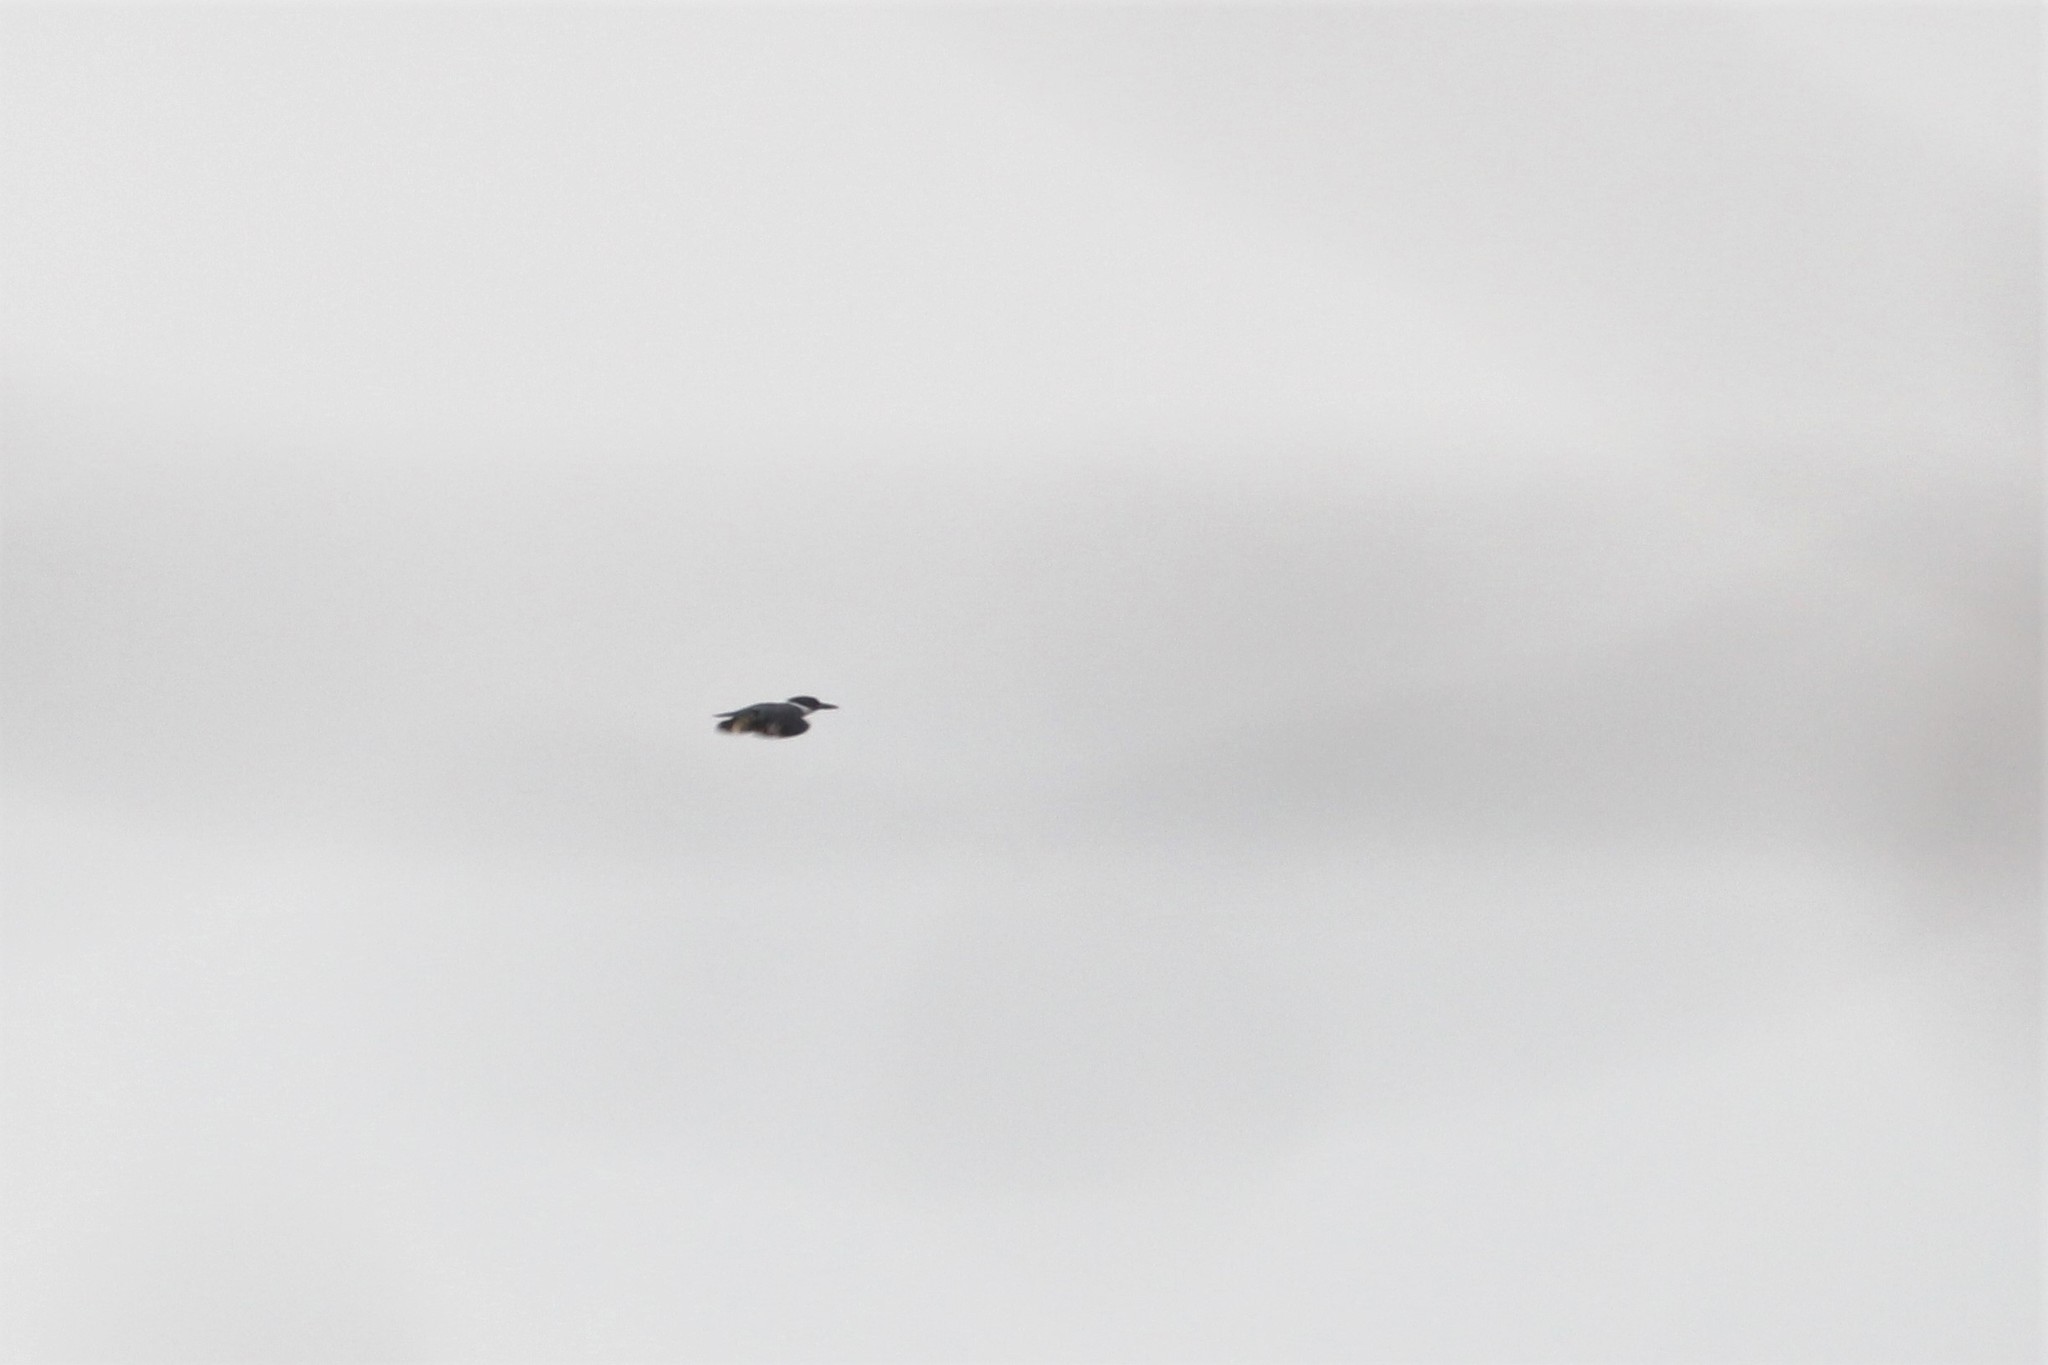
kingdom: Animalia
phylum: Chordata
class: Aves
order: Coraciiformes
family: Alcedinidae
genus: Megaceryle
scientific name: Megaceryle alcyon
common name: Belted kingfisher
